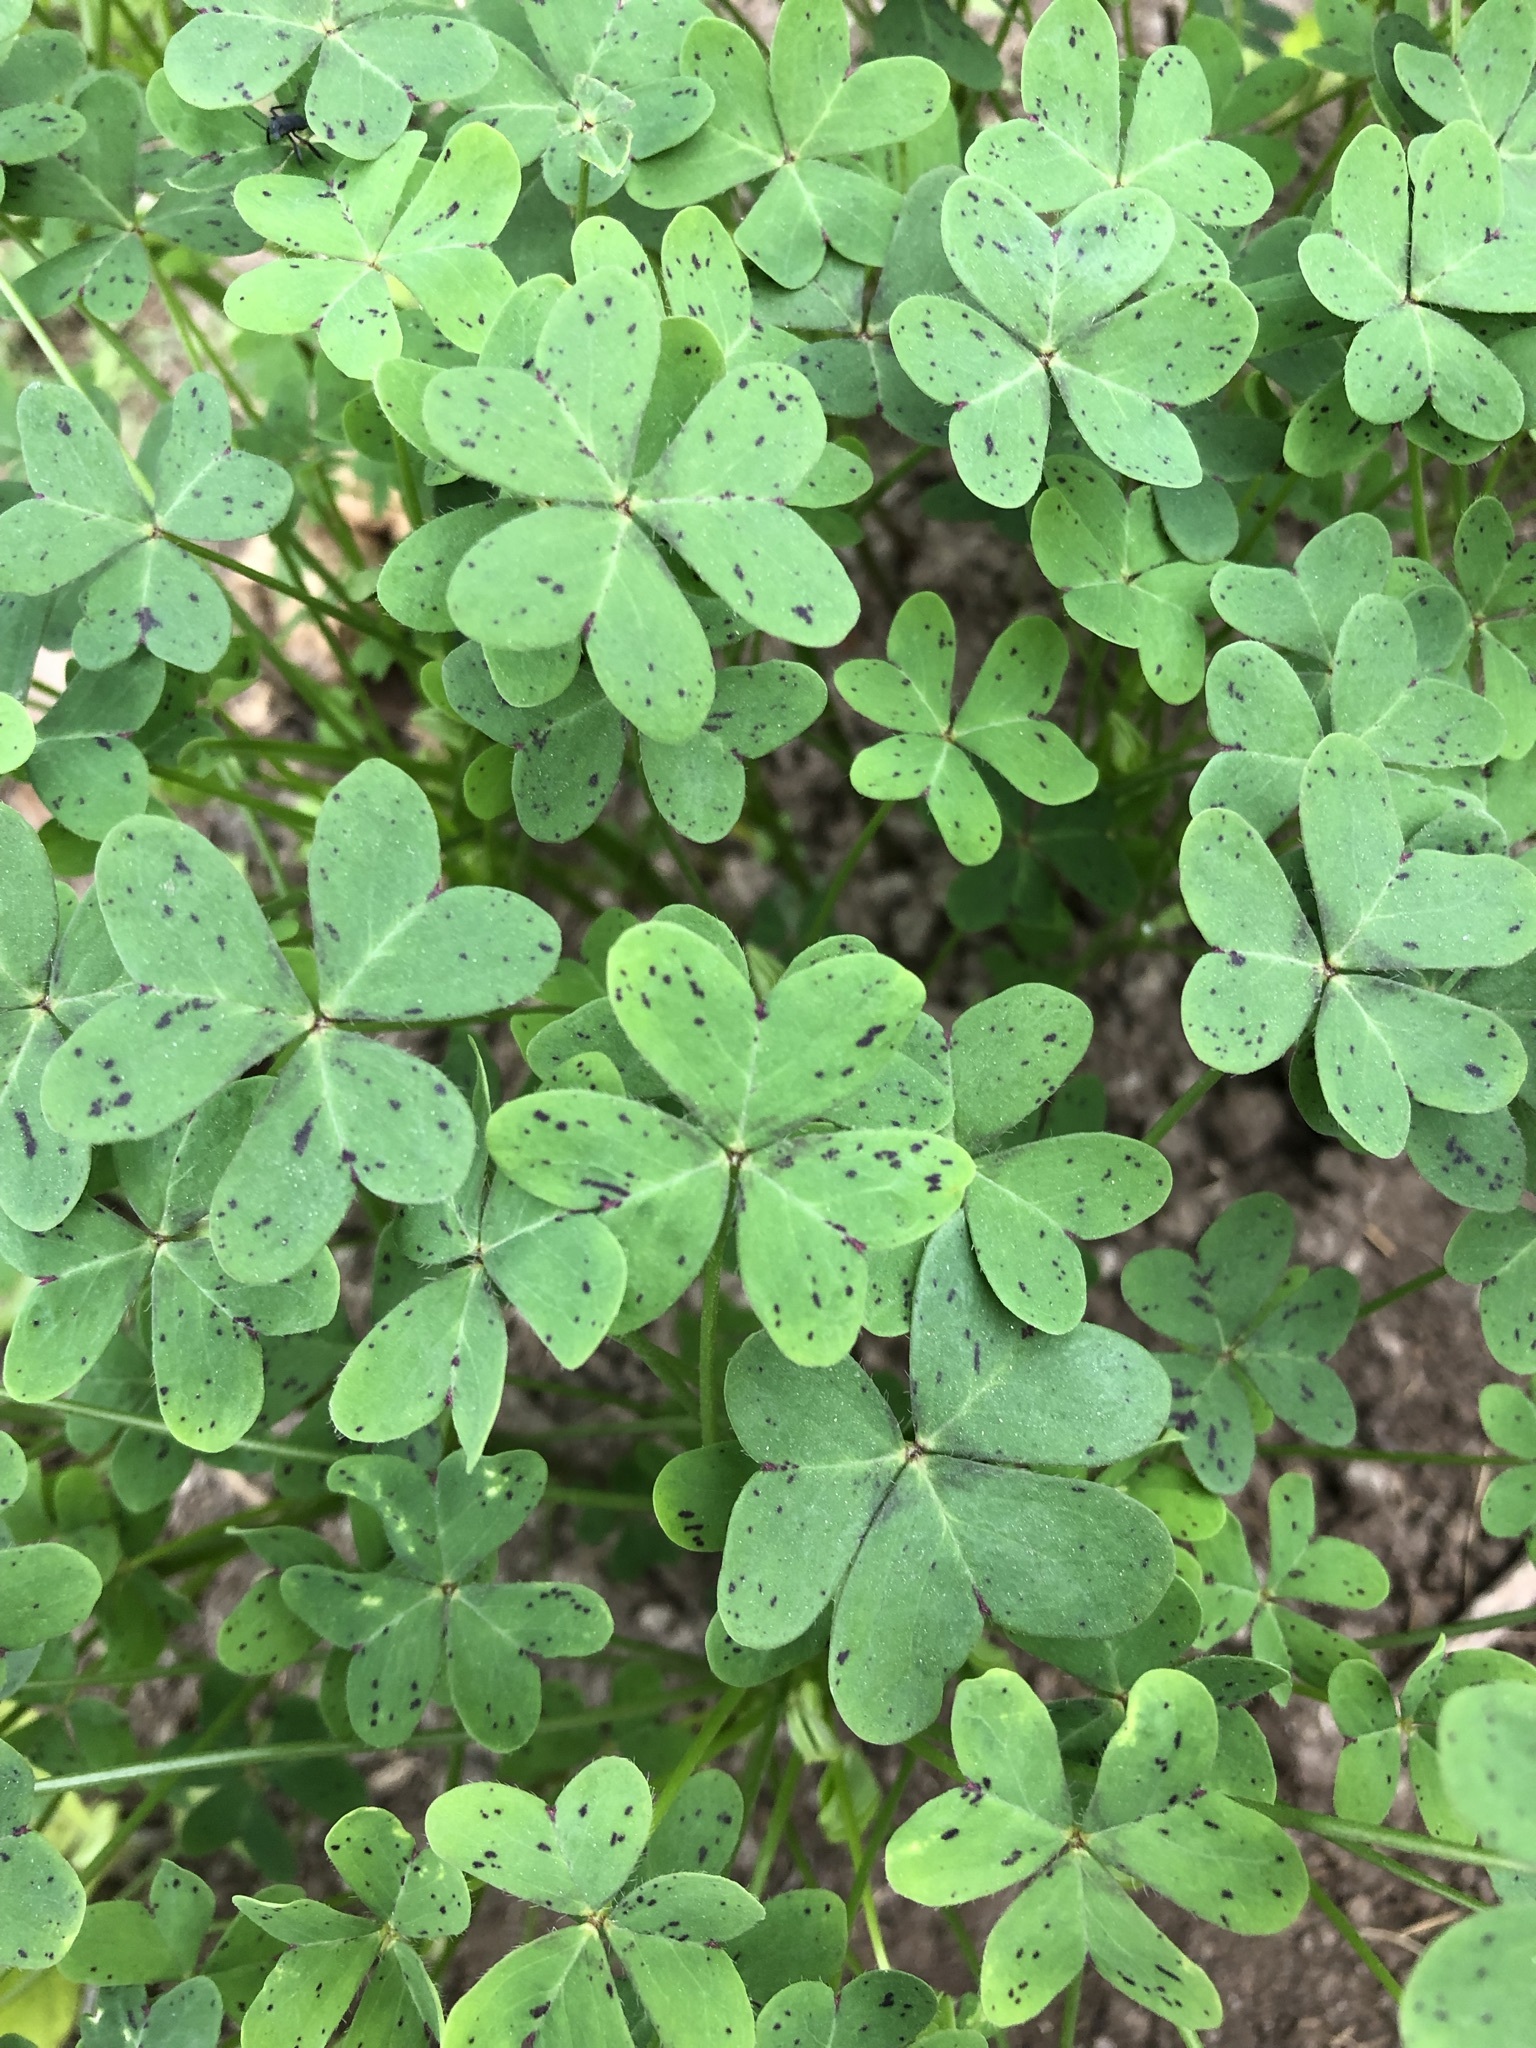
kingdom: Plantae
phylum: Tracheophyta
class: Magnoliopsida
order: Oxalidales
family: Oxalidaceae
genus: Oxalis
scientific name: Oxalis latifolia
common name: Garden pink-sorrel
